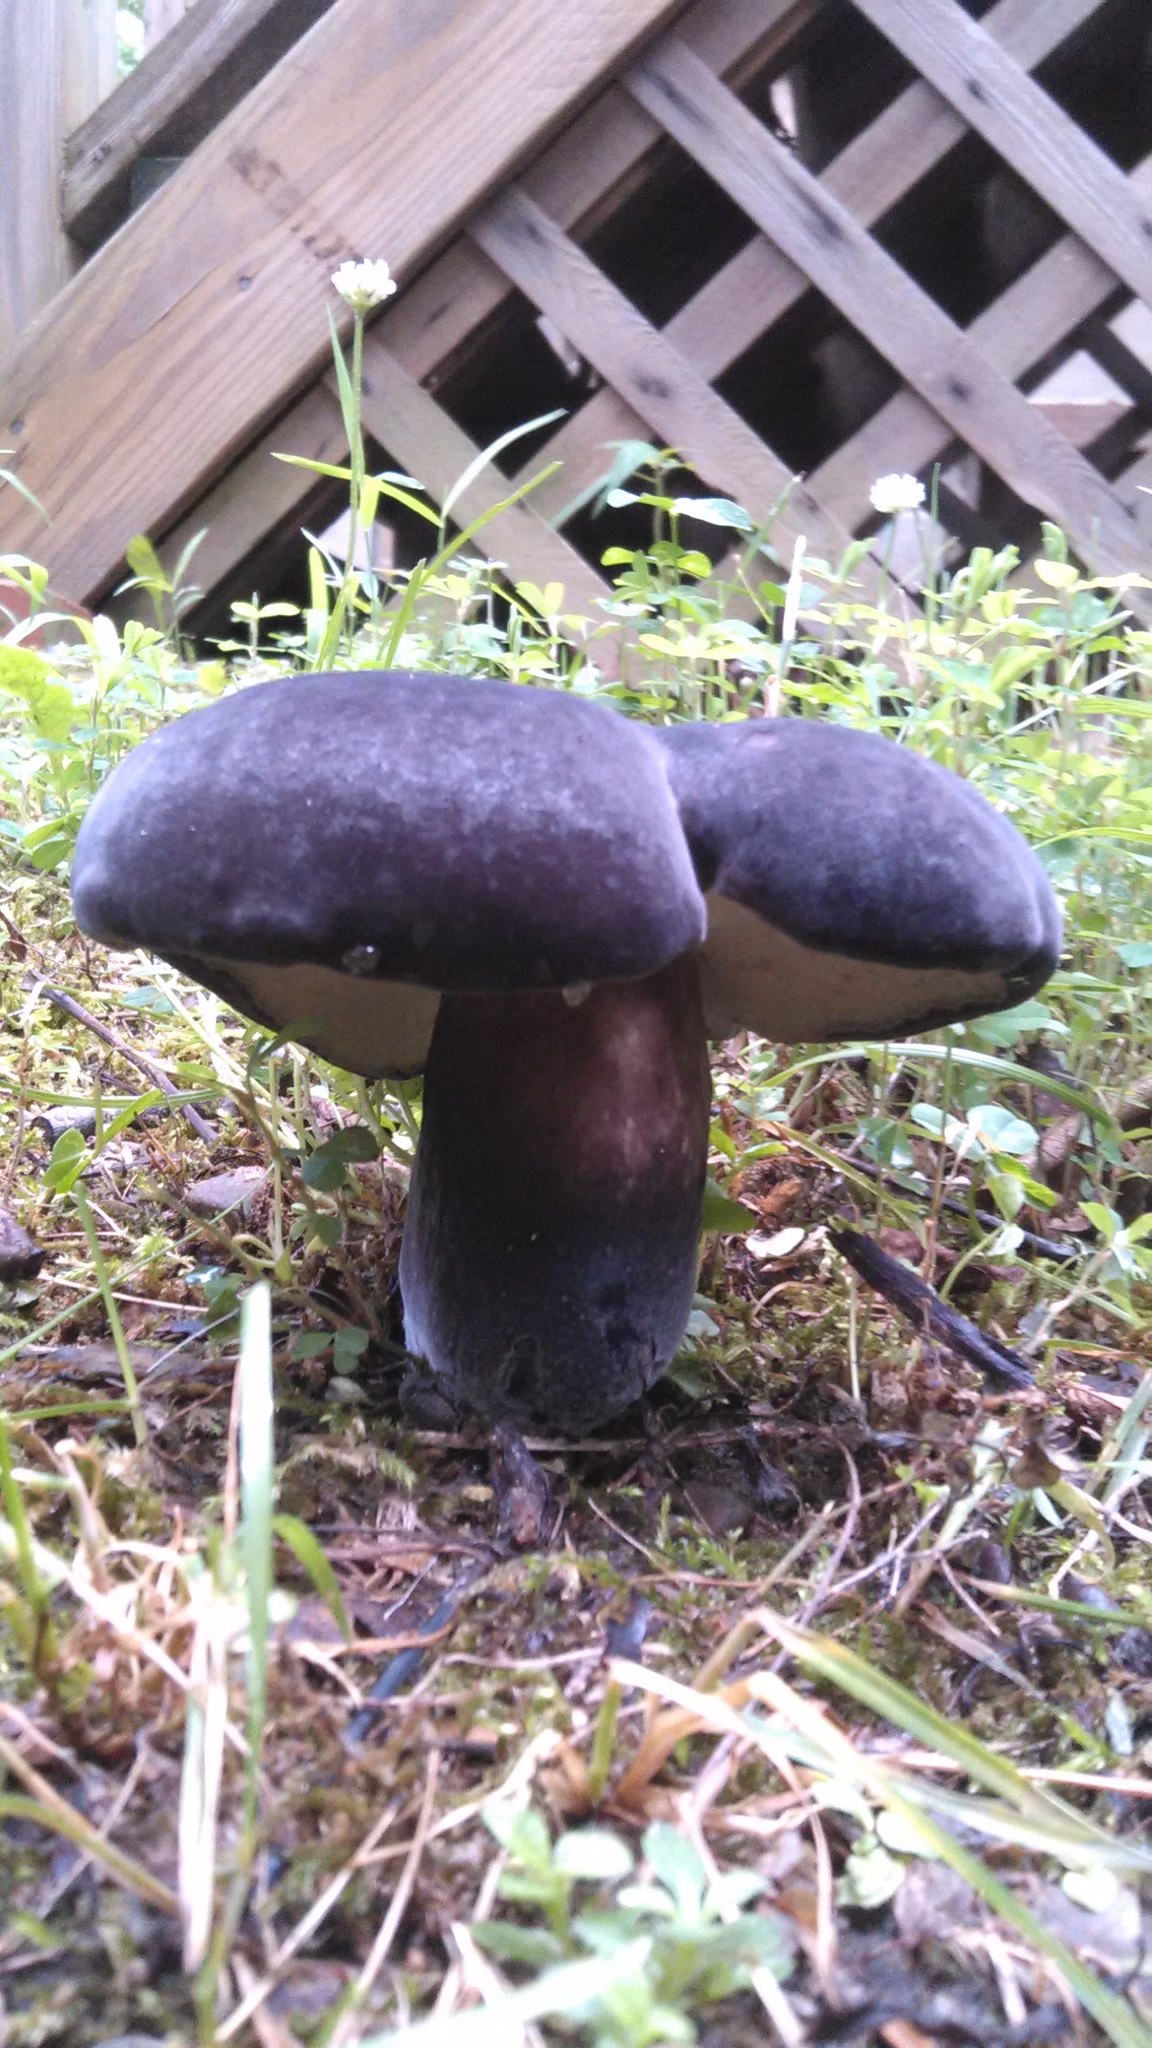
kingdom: Fungi
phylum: Basidiomycota
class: Agaricomycetes
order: Boletales
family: Boletaceae
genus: Tylopilus
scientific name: Tylopilus alboater
